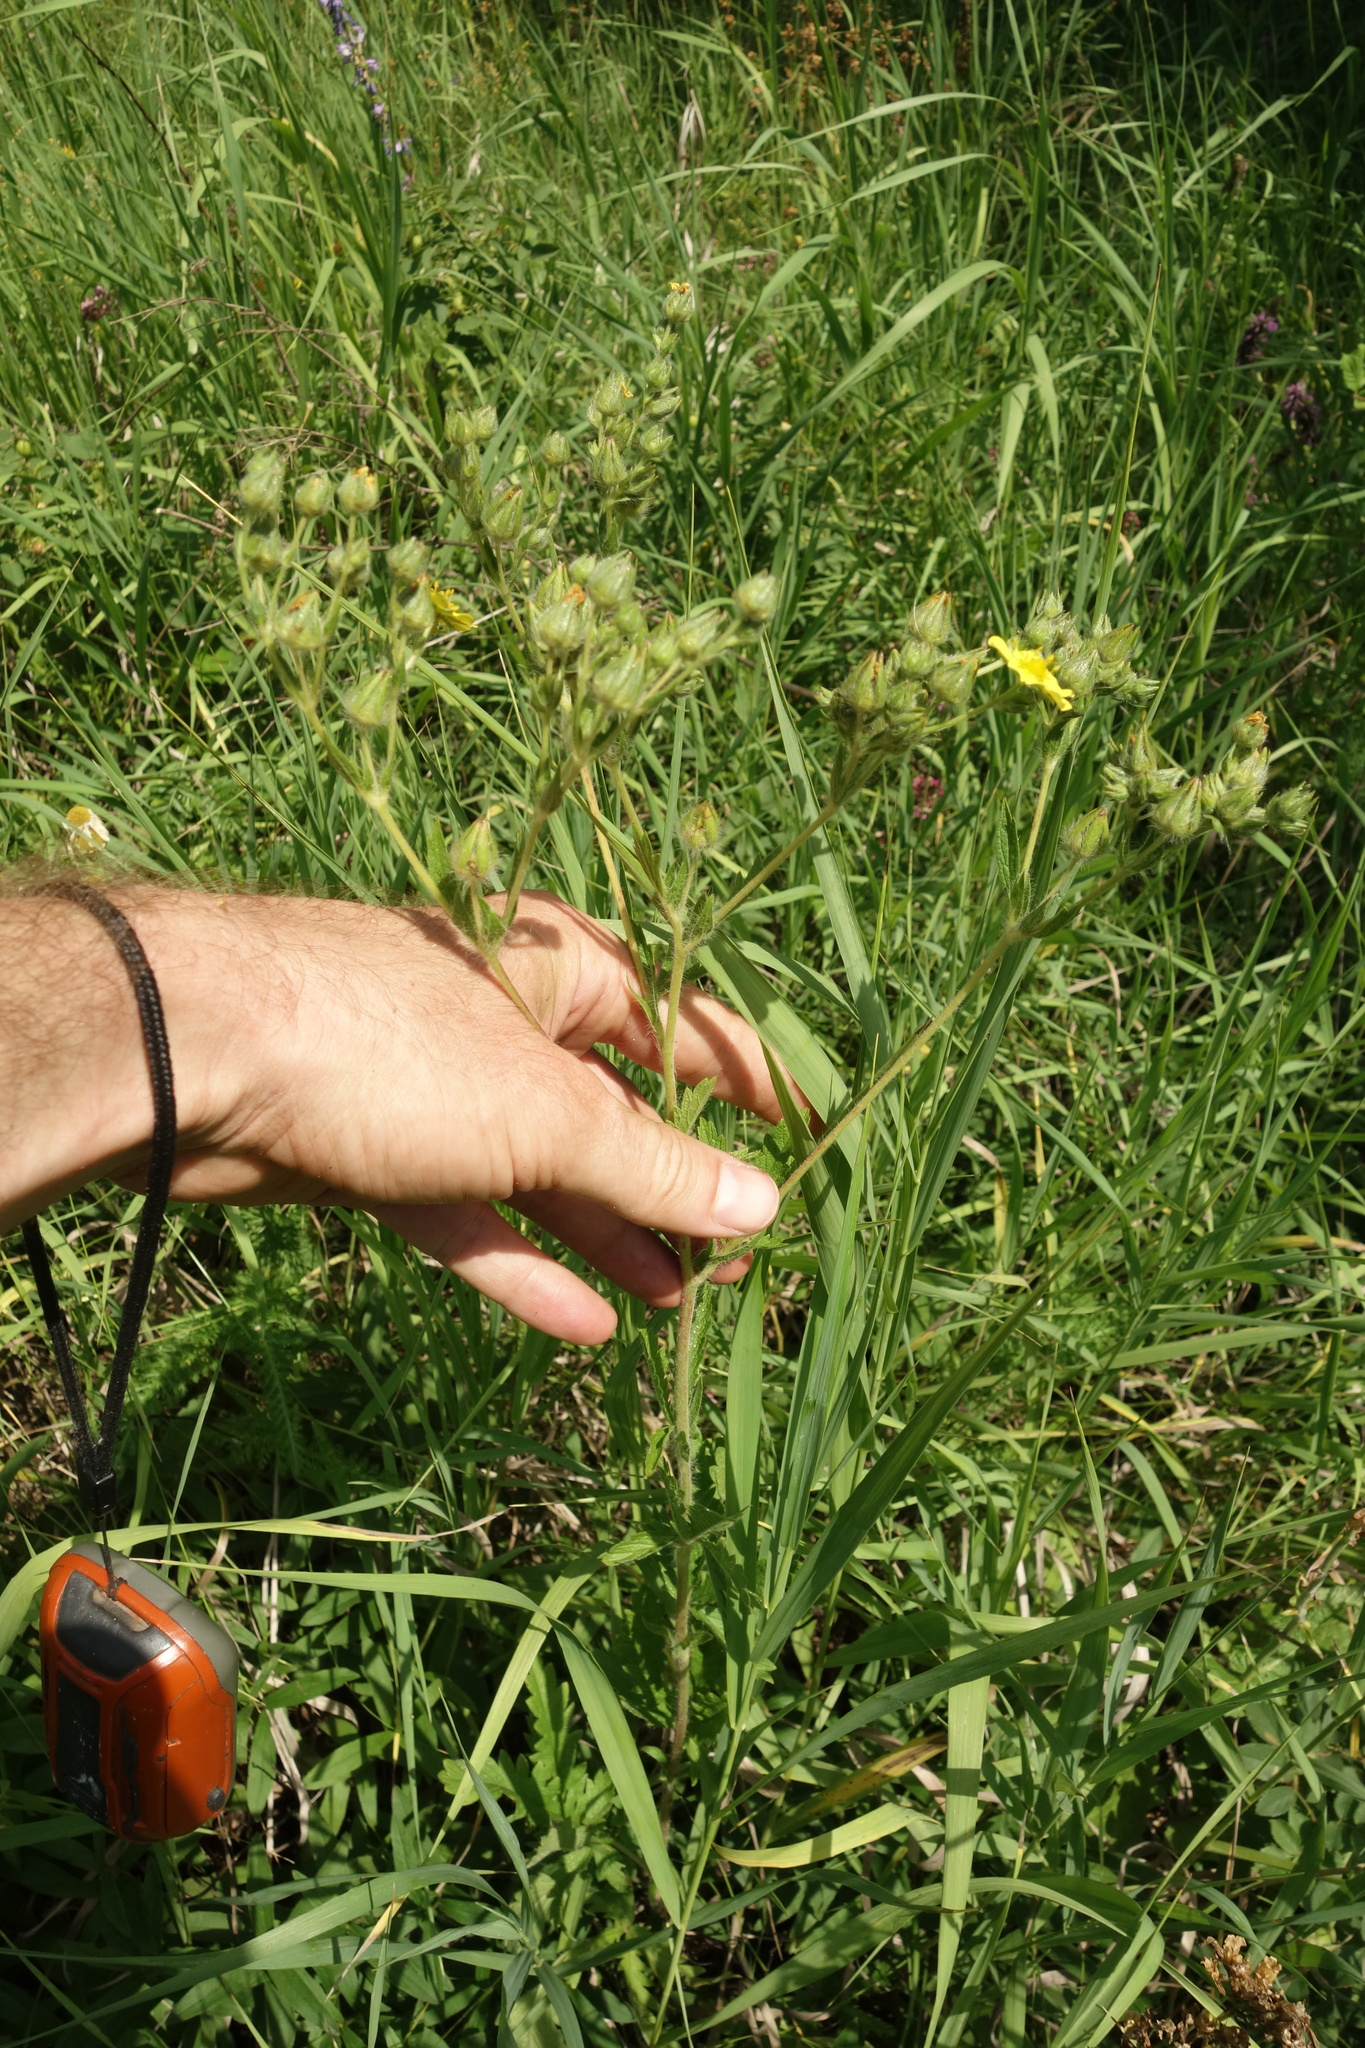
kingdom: Plantae
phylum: Tracheophyta
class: Magnoliopsida
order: Rosales
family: Rosaceae
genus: Potentilla
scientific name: Potentilla recta
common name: Sulphur cinquefoil
